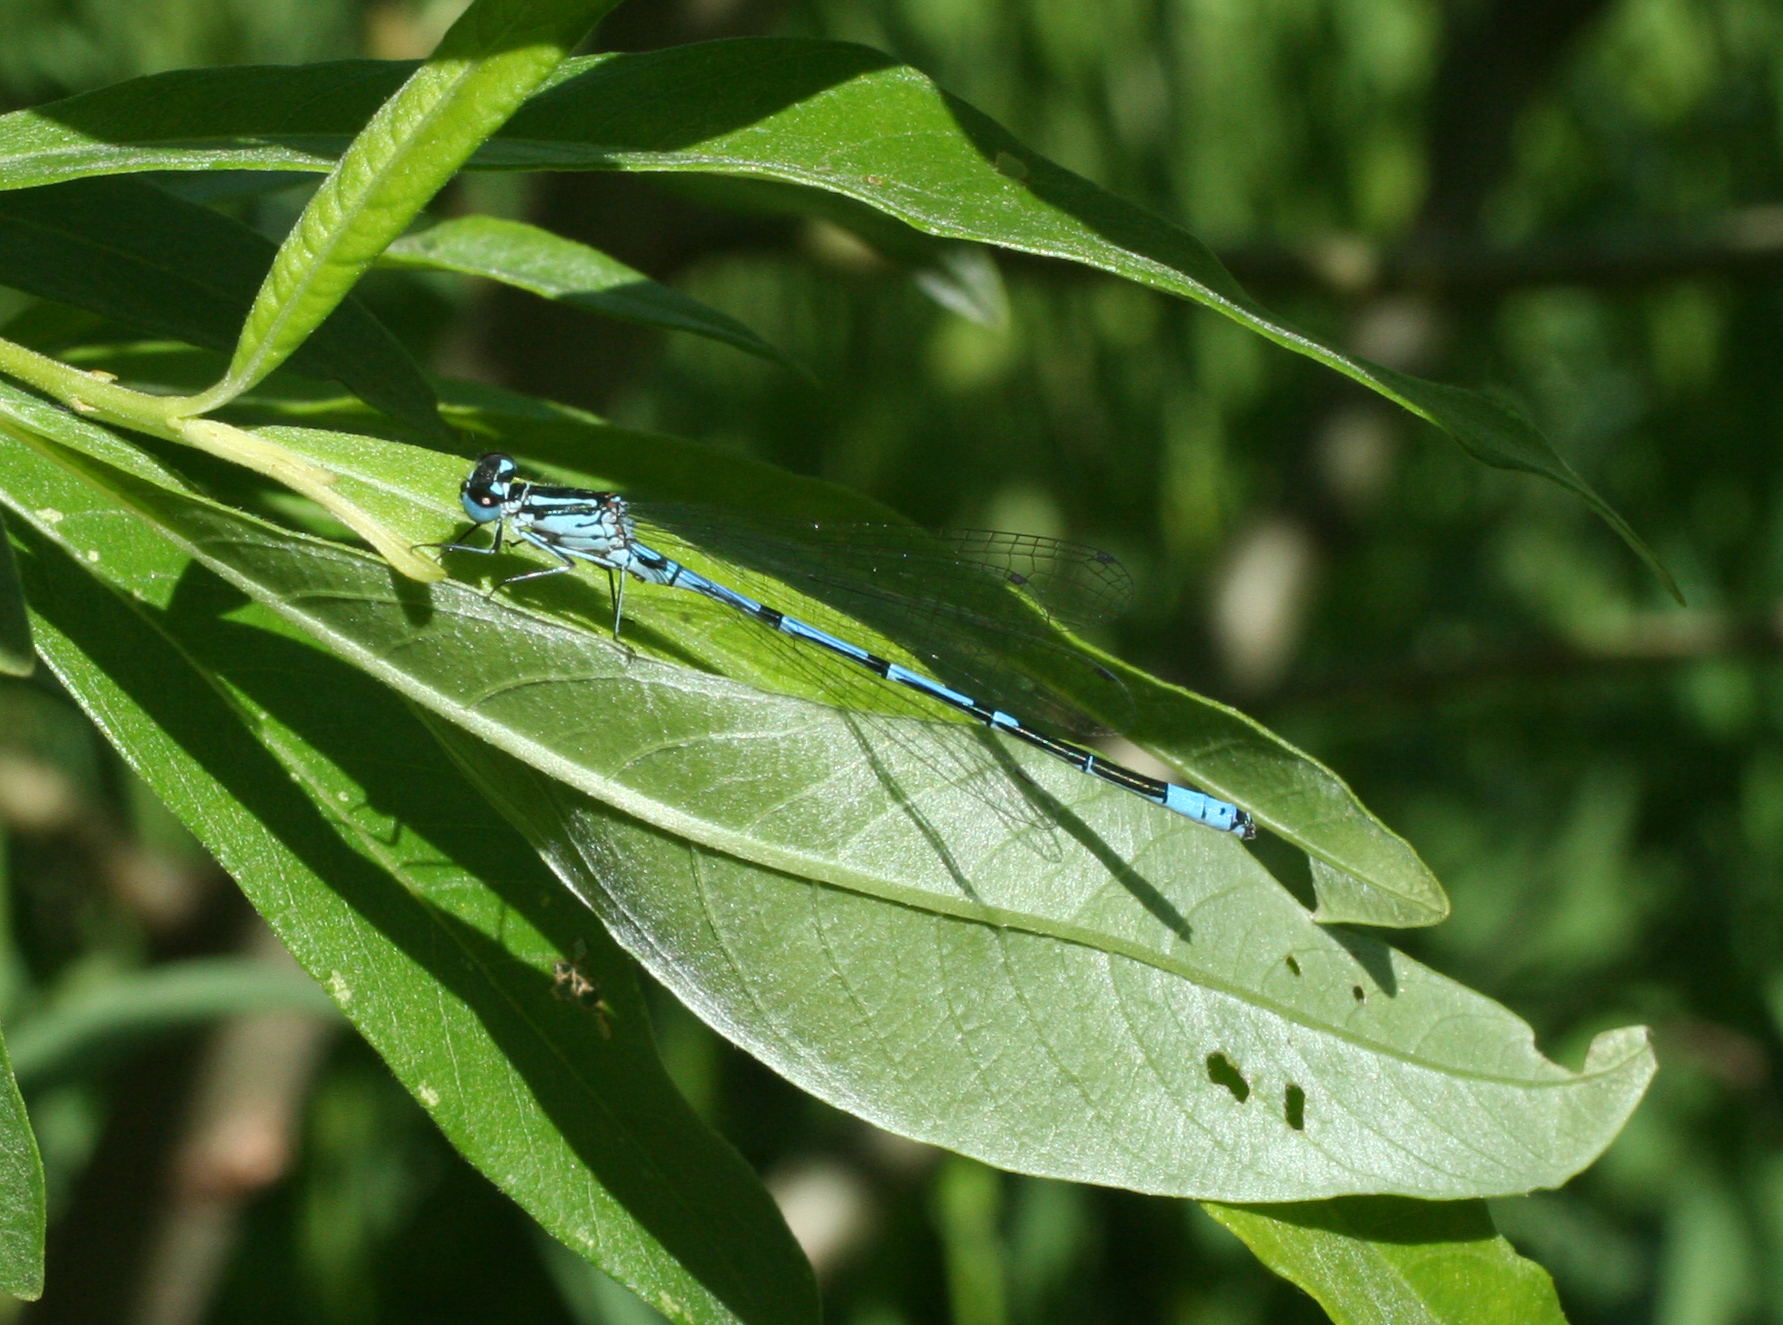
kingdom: Animalia
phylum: Arthropoda
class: Insecta
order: Odonata
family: Coenagrionidae
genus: Coenagrion
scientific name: Coenagrion puella
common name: Azure damselfly
